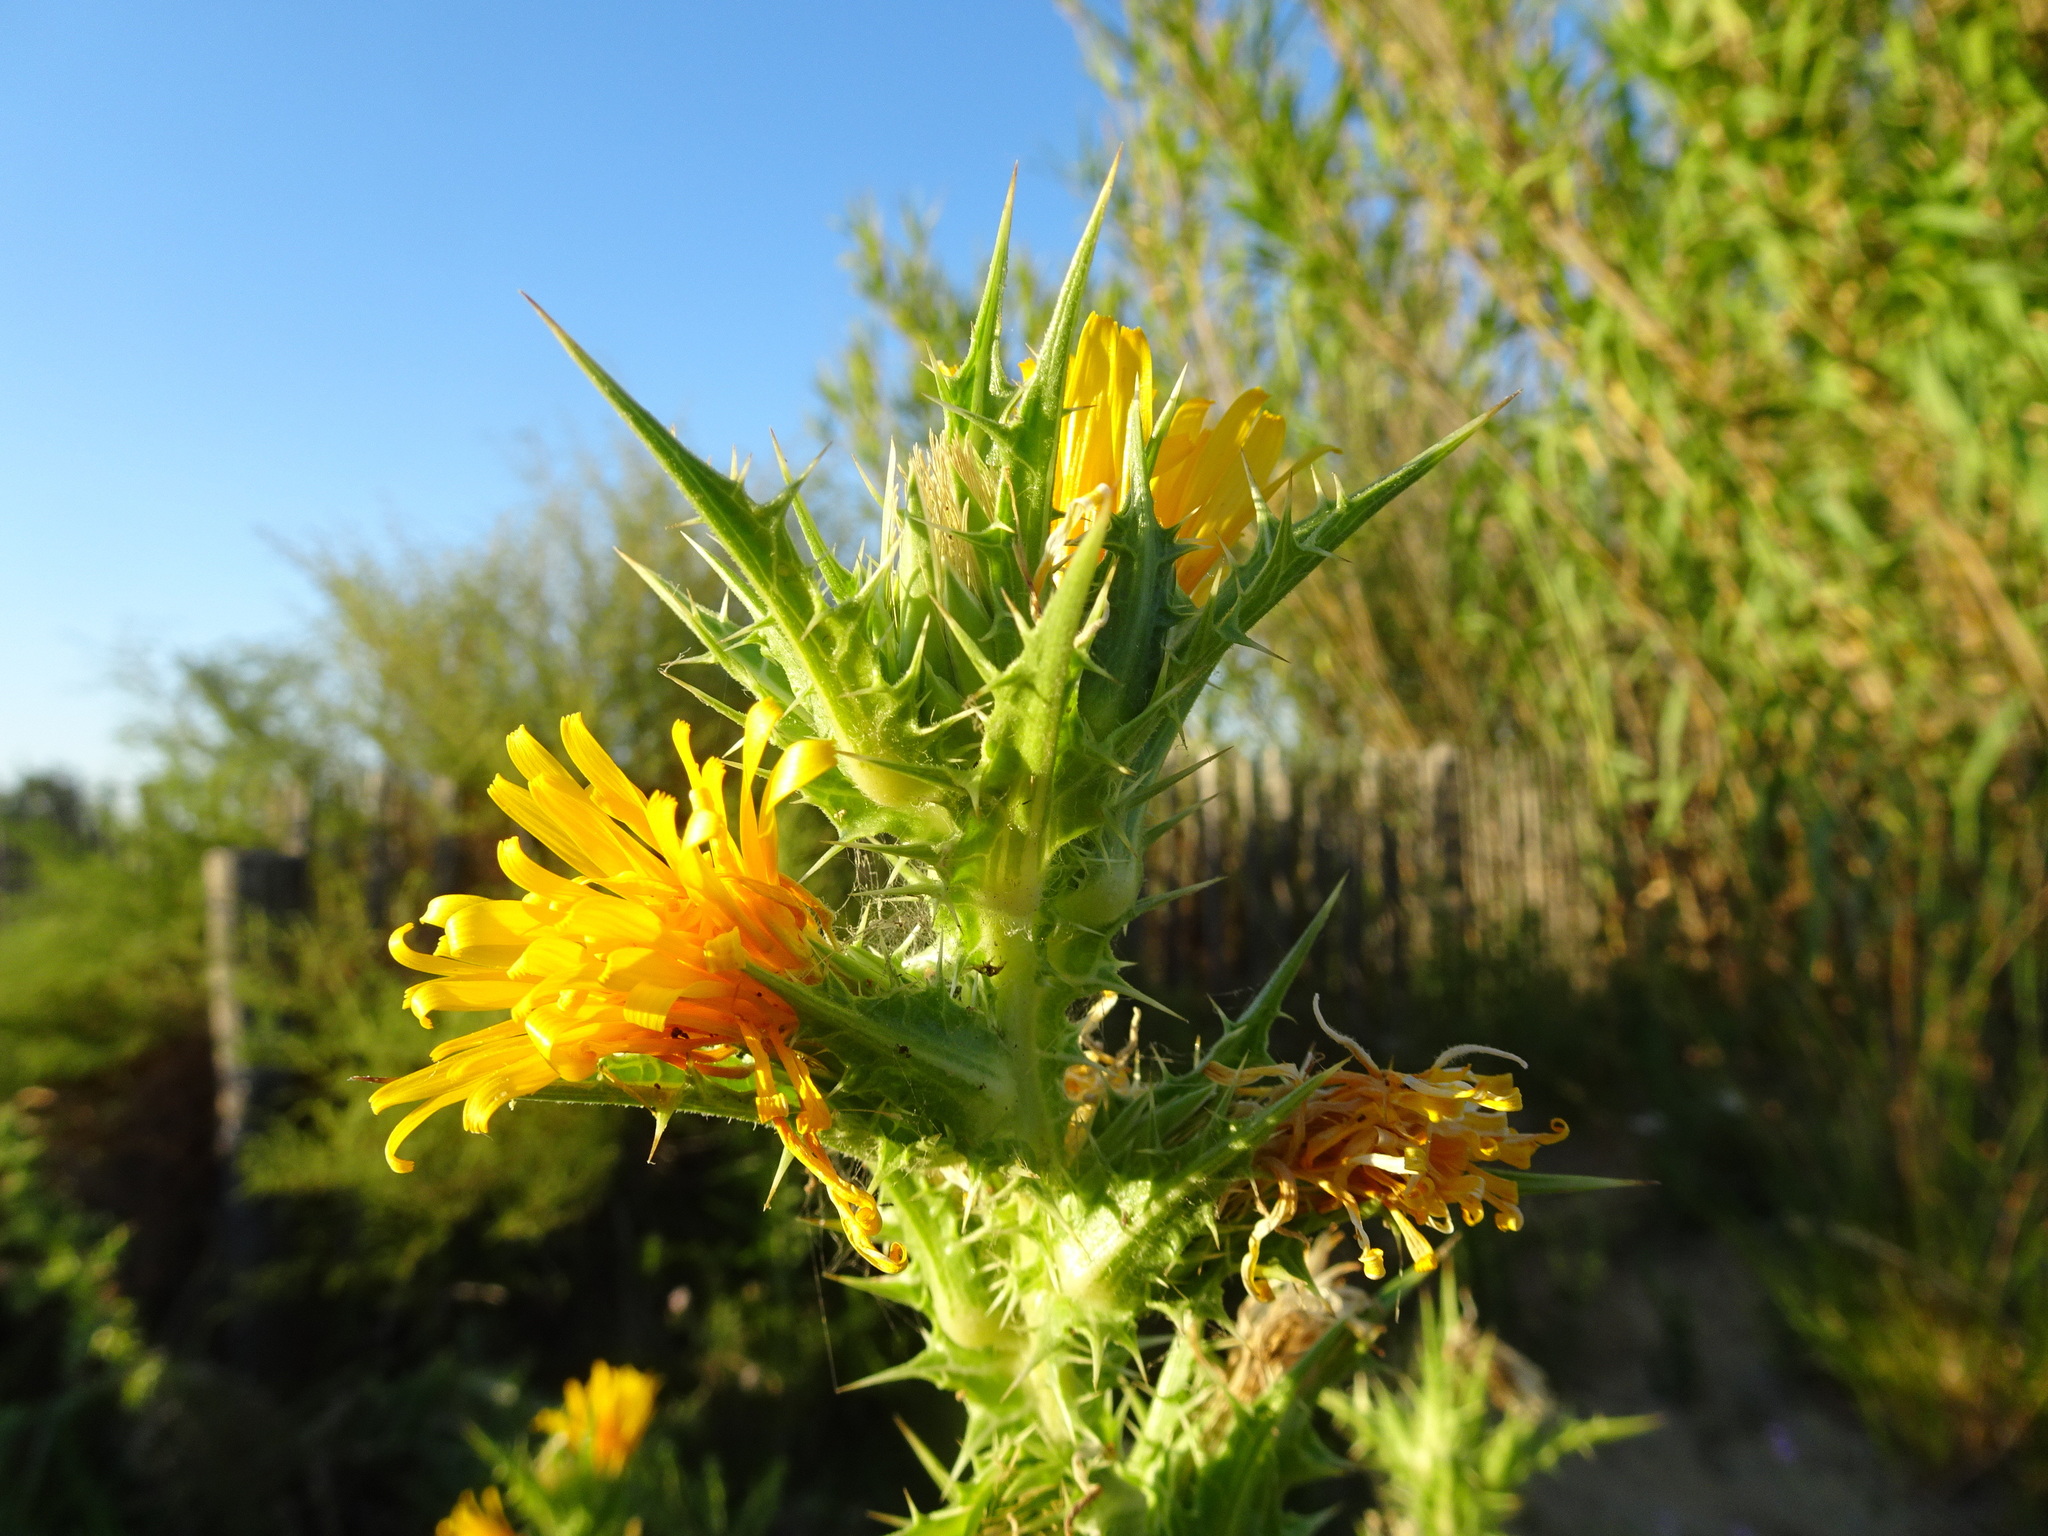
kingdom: Plantae
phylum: Tracheophyta
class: Magnoliopsida
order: Asterales
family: Asteraceae
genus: Scolymus
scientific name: Scolymus hispanicus
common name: Golden thistle
